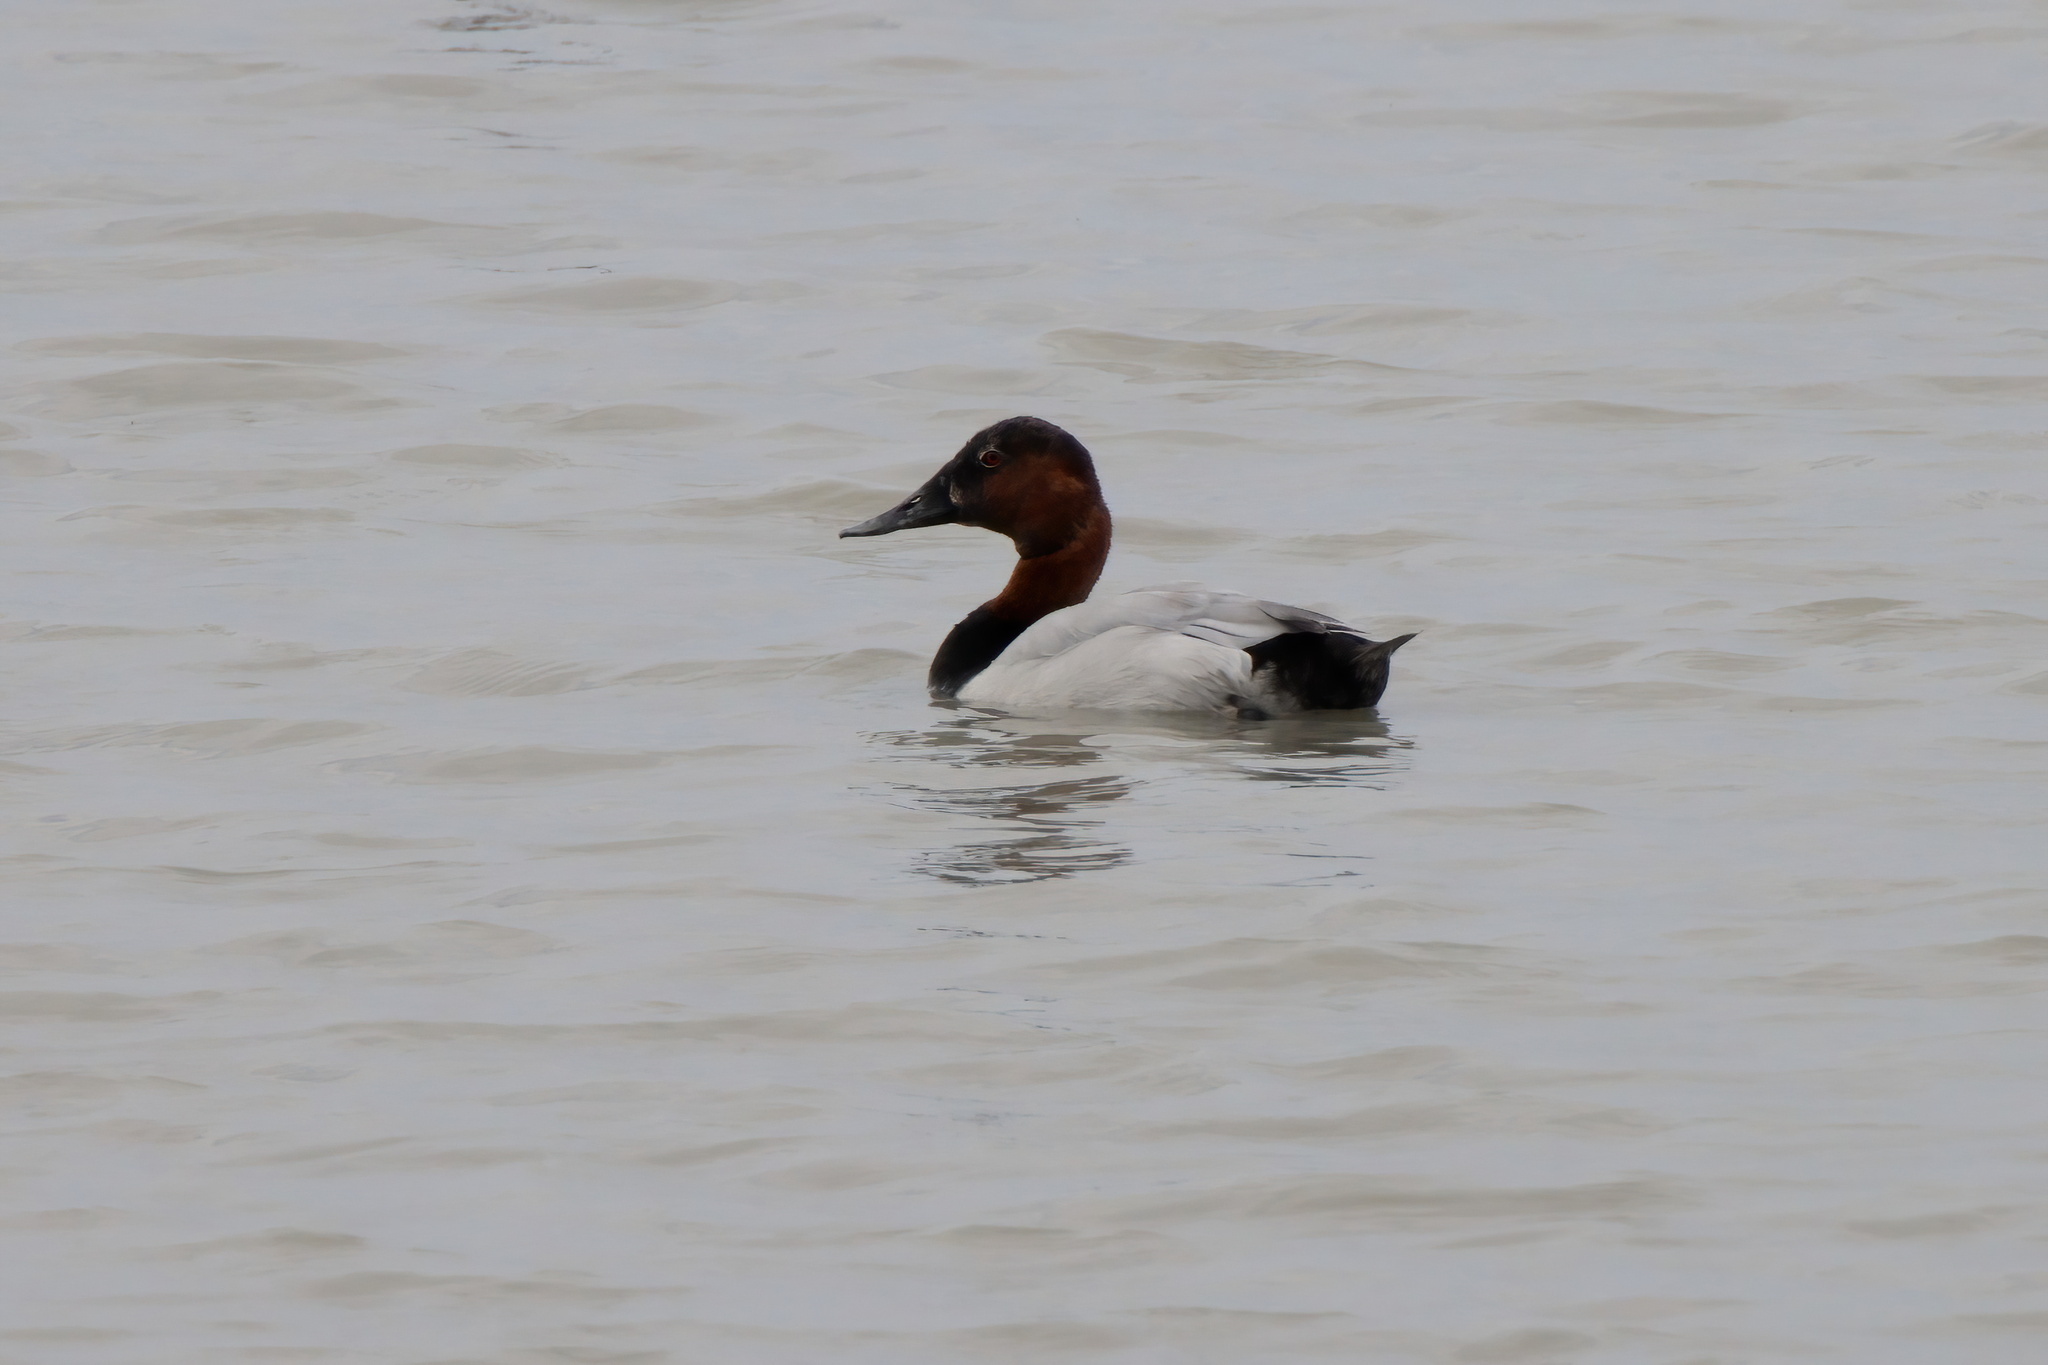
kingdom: Animalia
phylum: Chordata
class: Aves
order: Anseriformes
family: Anatidae
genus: Aythya
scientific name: Aythya valisineria
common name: Canvasback
